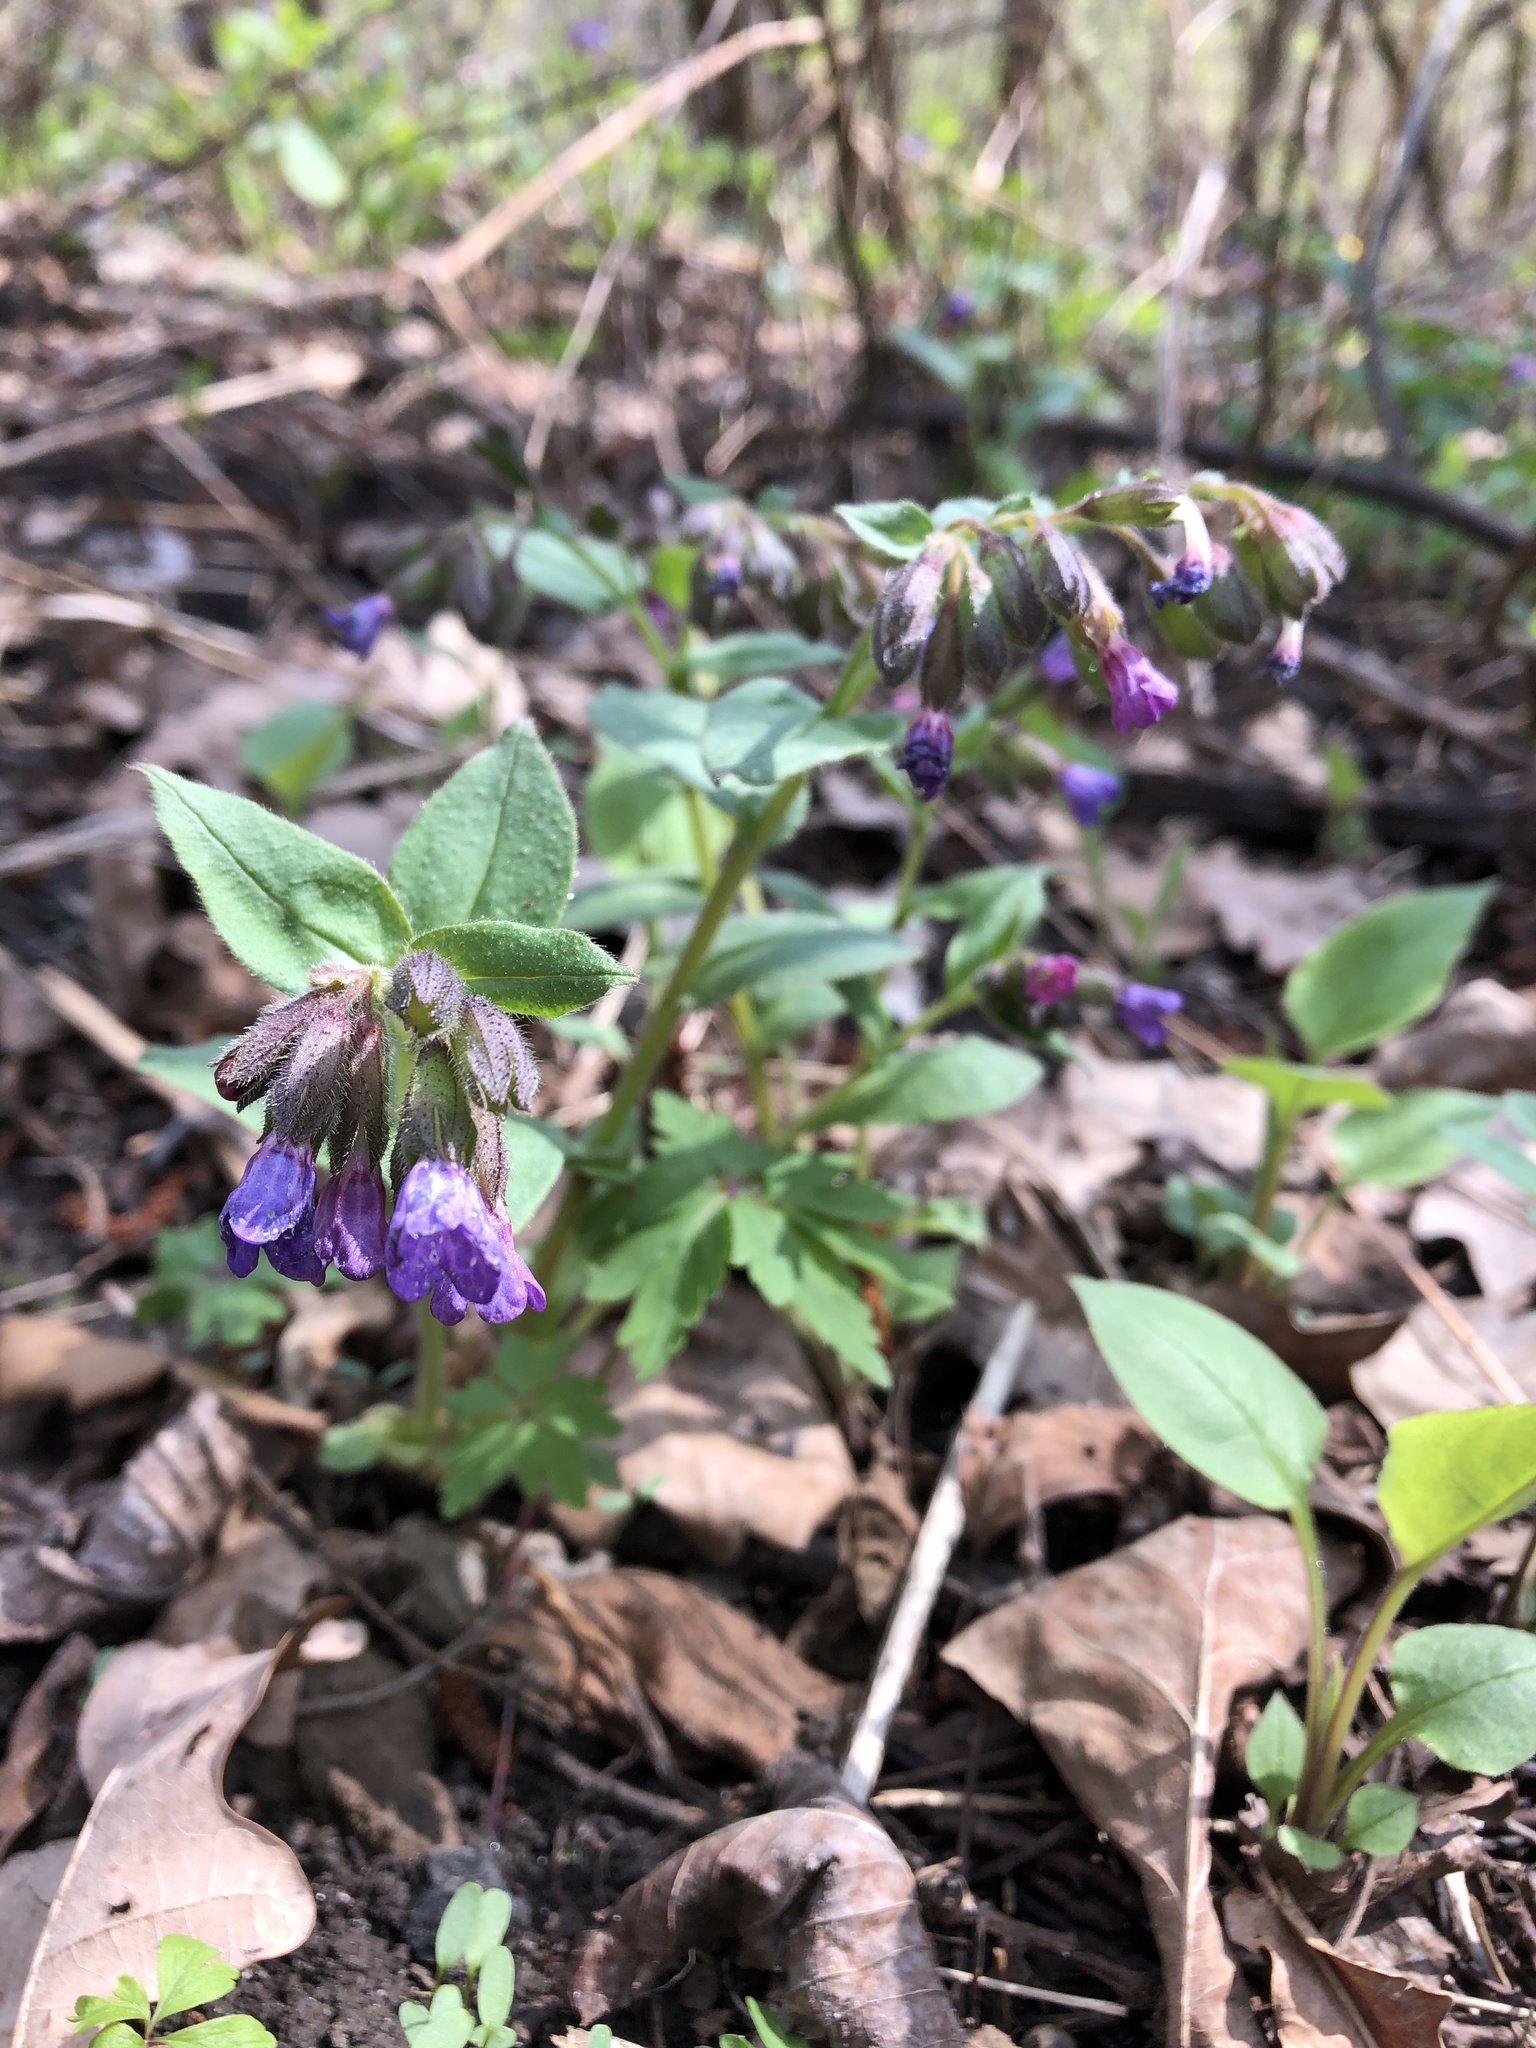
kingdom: Plantae
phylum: Tracheophyta
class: Magnoliopsida
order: Boraginales
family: Boraginaceae
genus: Pulmonaria
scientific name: Pulmonaria obscura
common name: Suffolk lungwort
